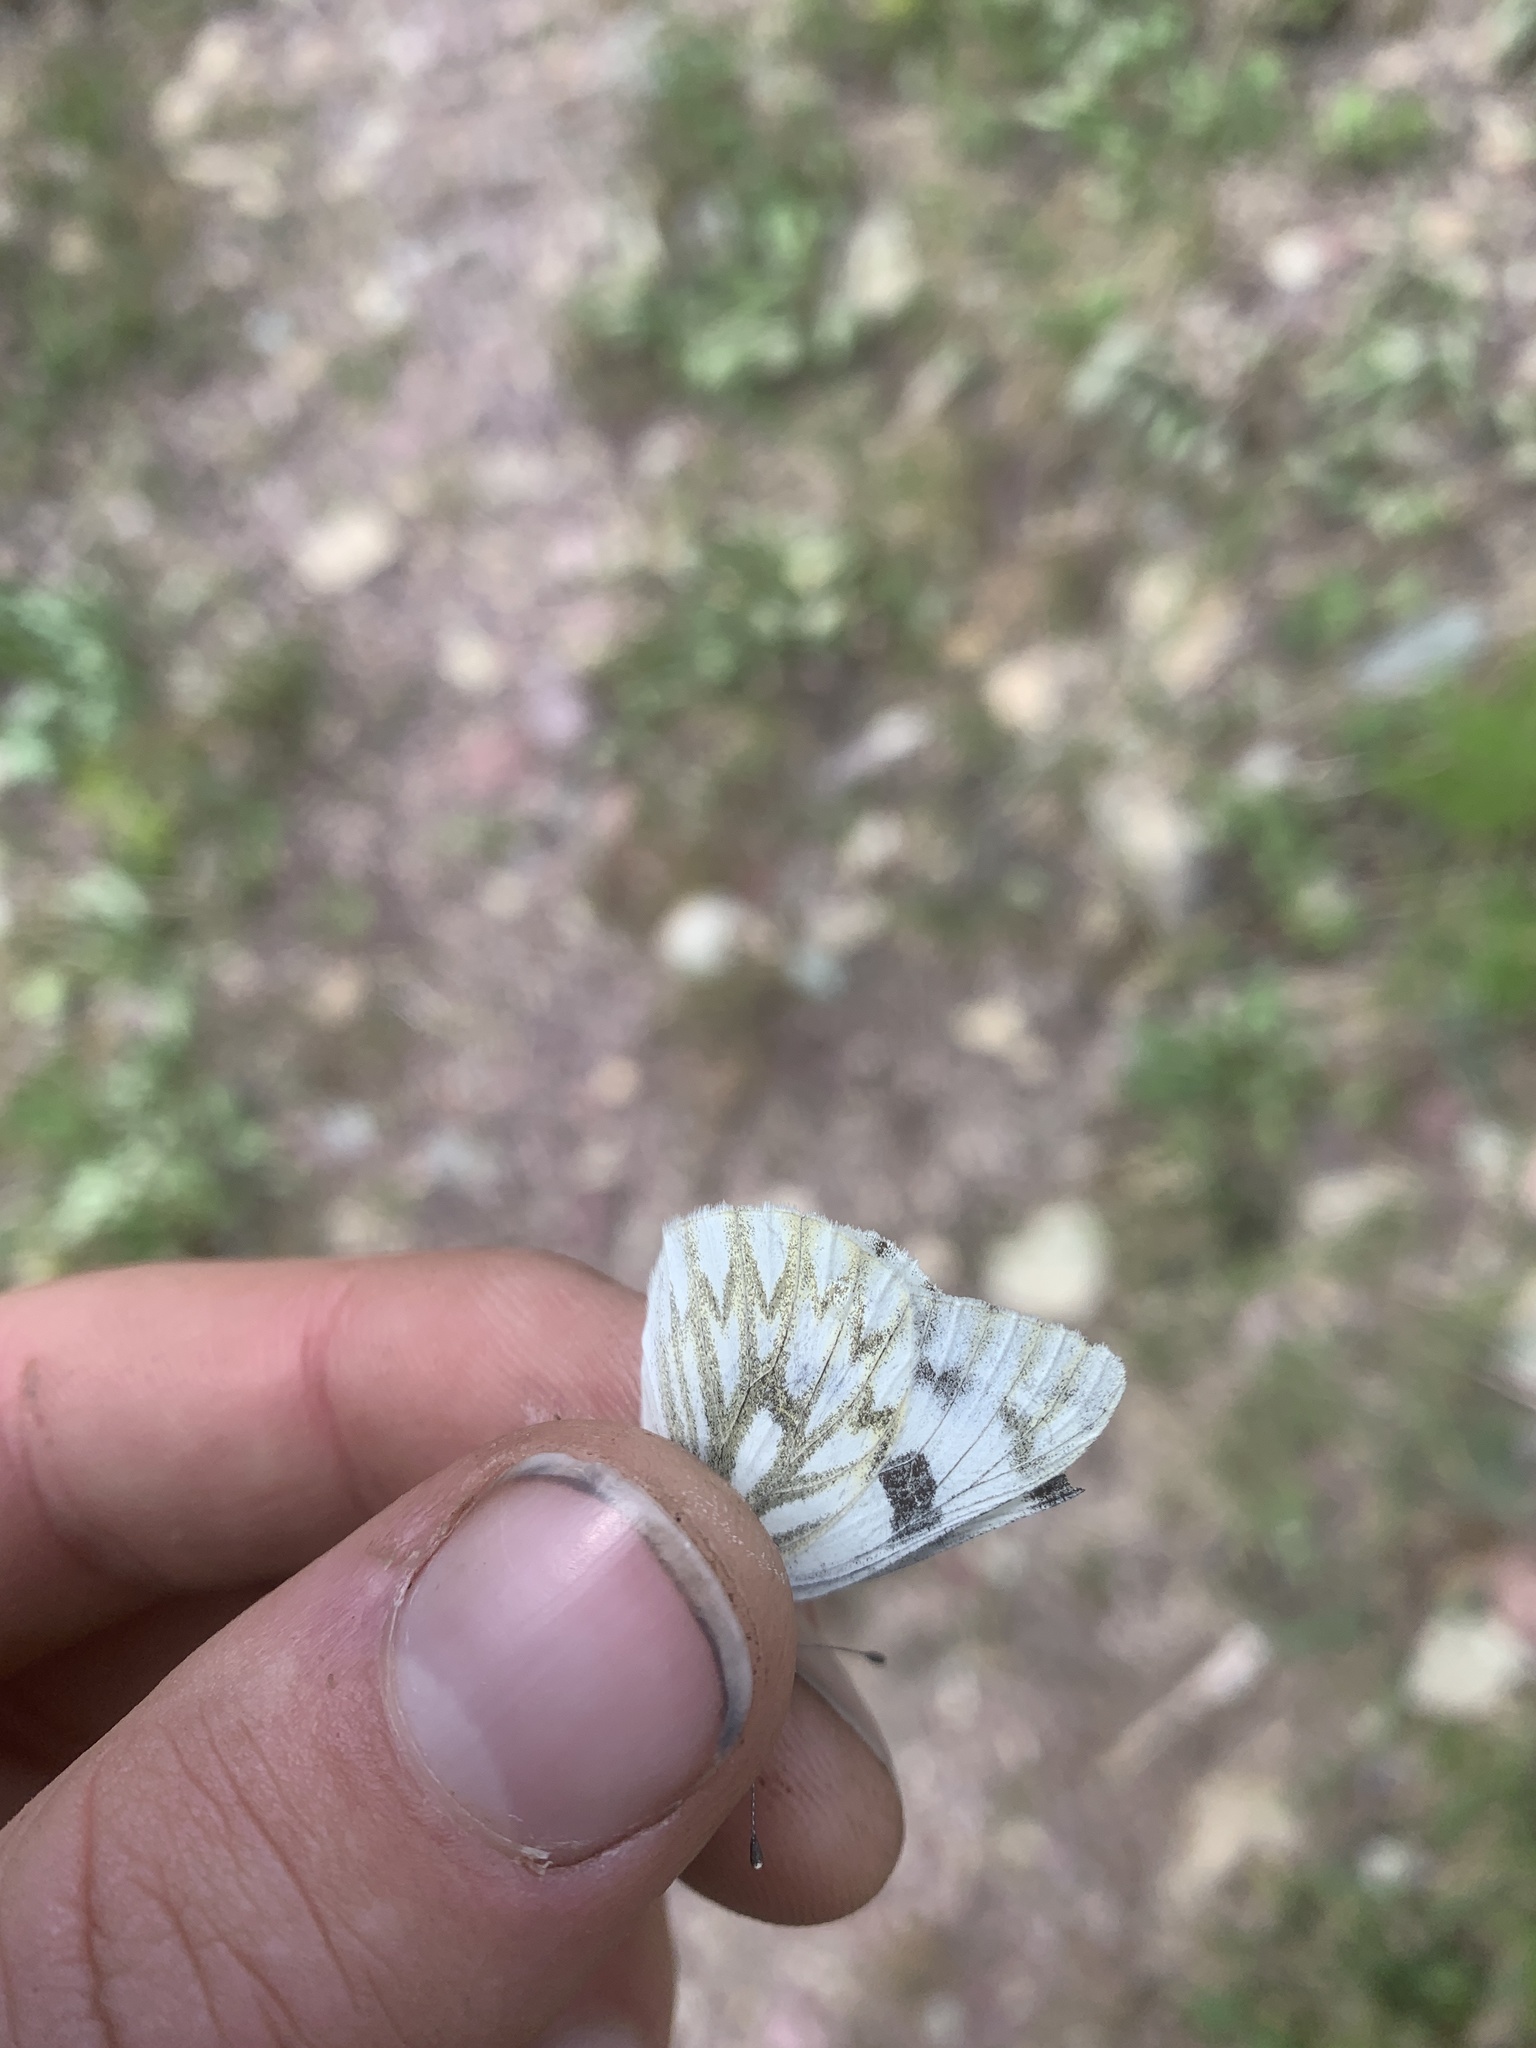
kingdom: Animalia
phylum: Arthropoda
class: Insecta
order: Lepidoptera
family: Pieridae
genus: Pontia
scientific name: Pontia occidentalis
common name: Western white
